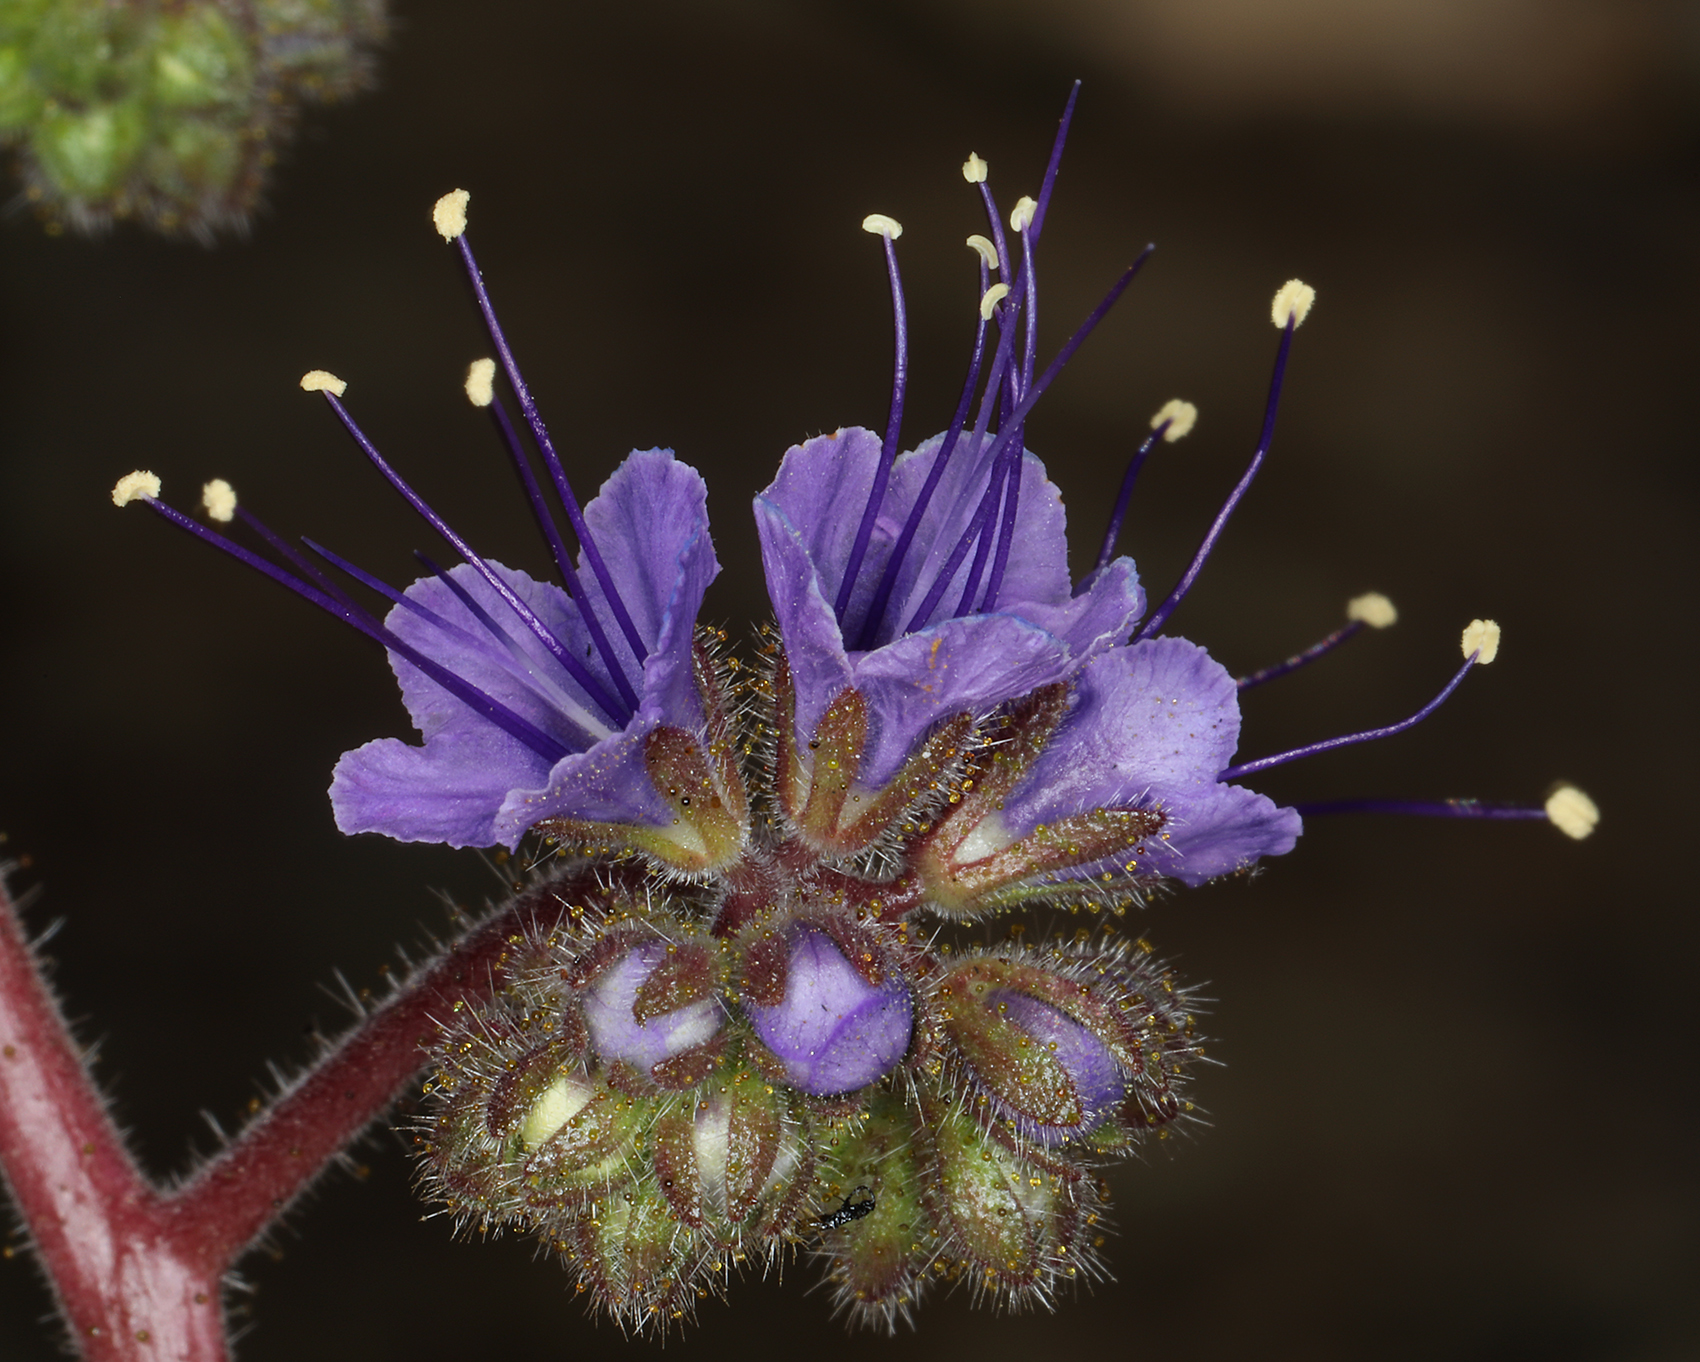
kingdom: Plantae
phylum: Tracheophyta
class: Magnoliopsida
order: Boraginales
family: Hydrophyllaceae
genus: Phacelia
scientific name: Phacelia crenulata
